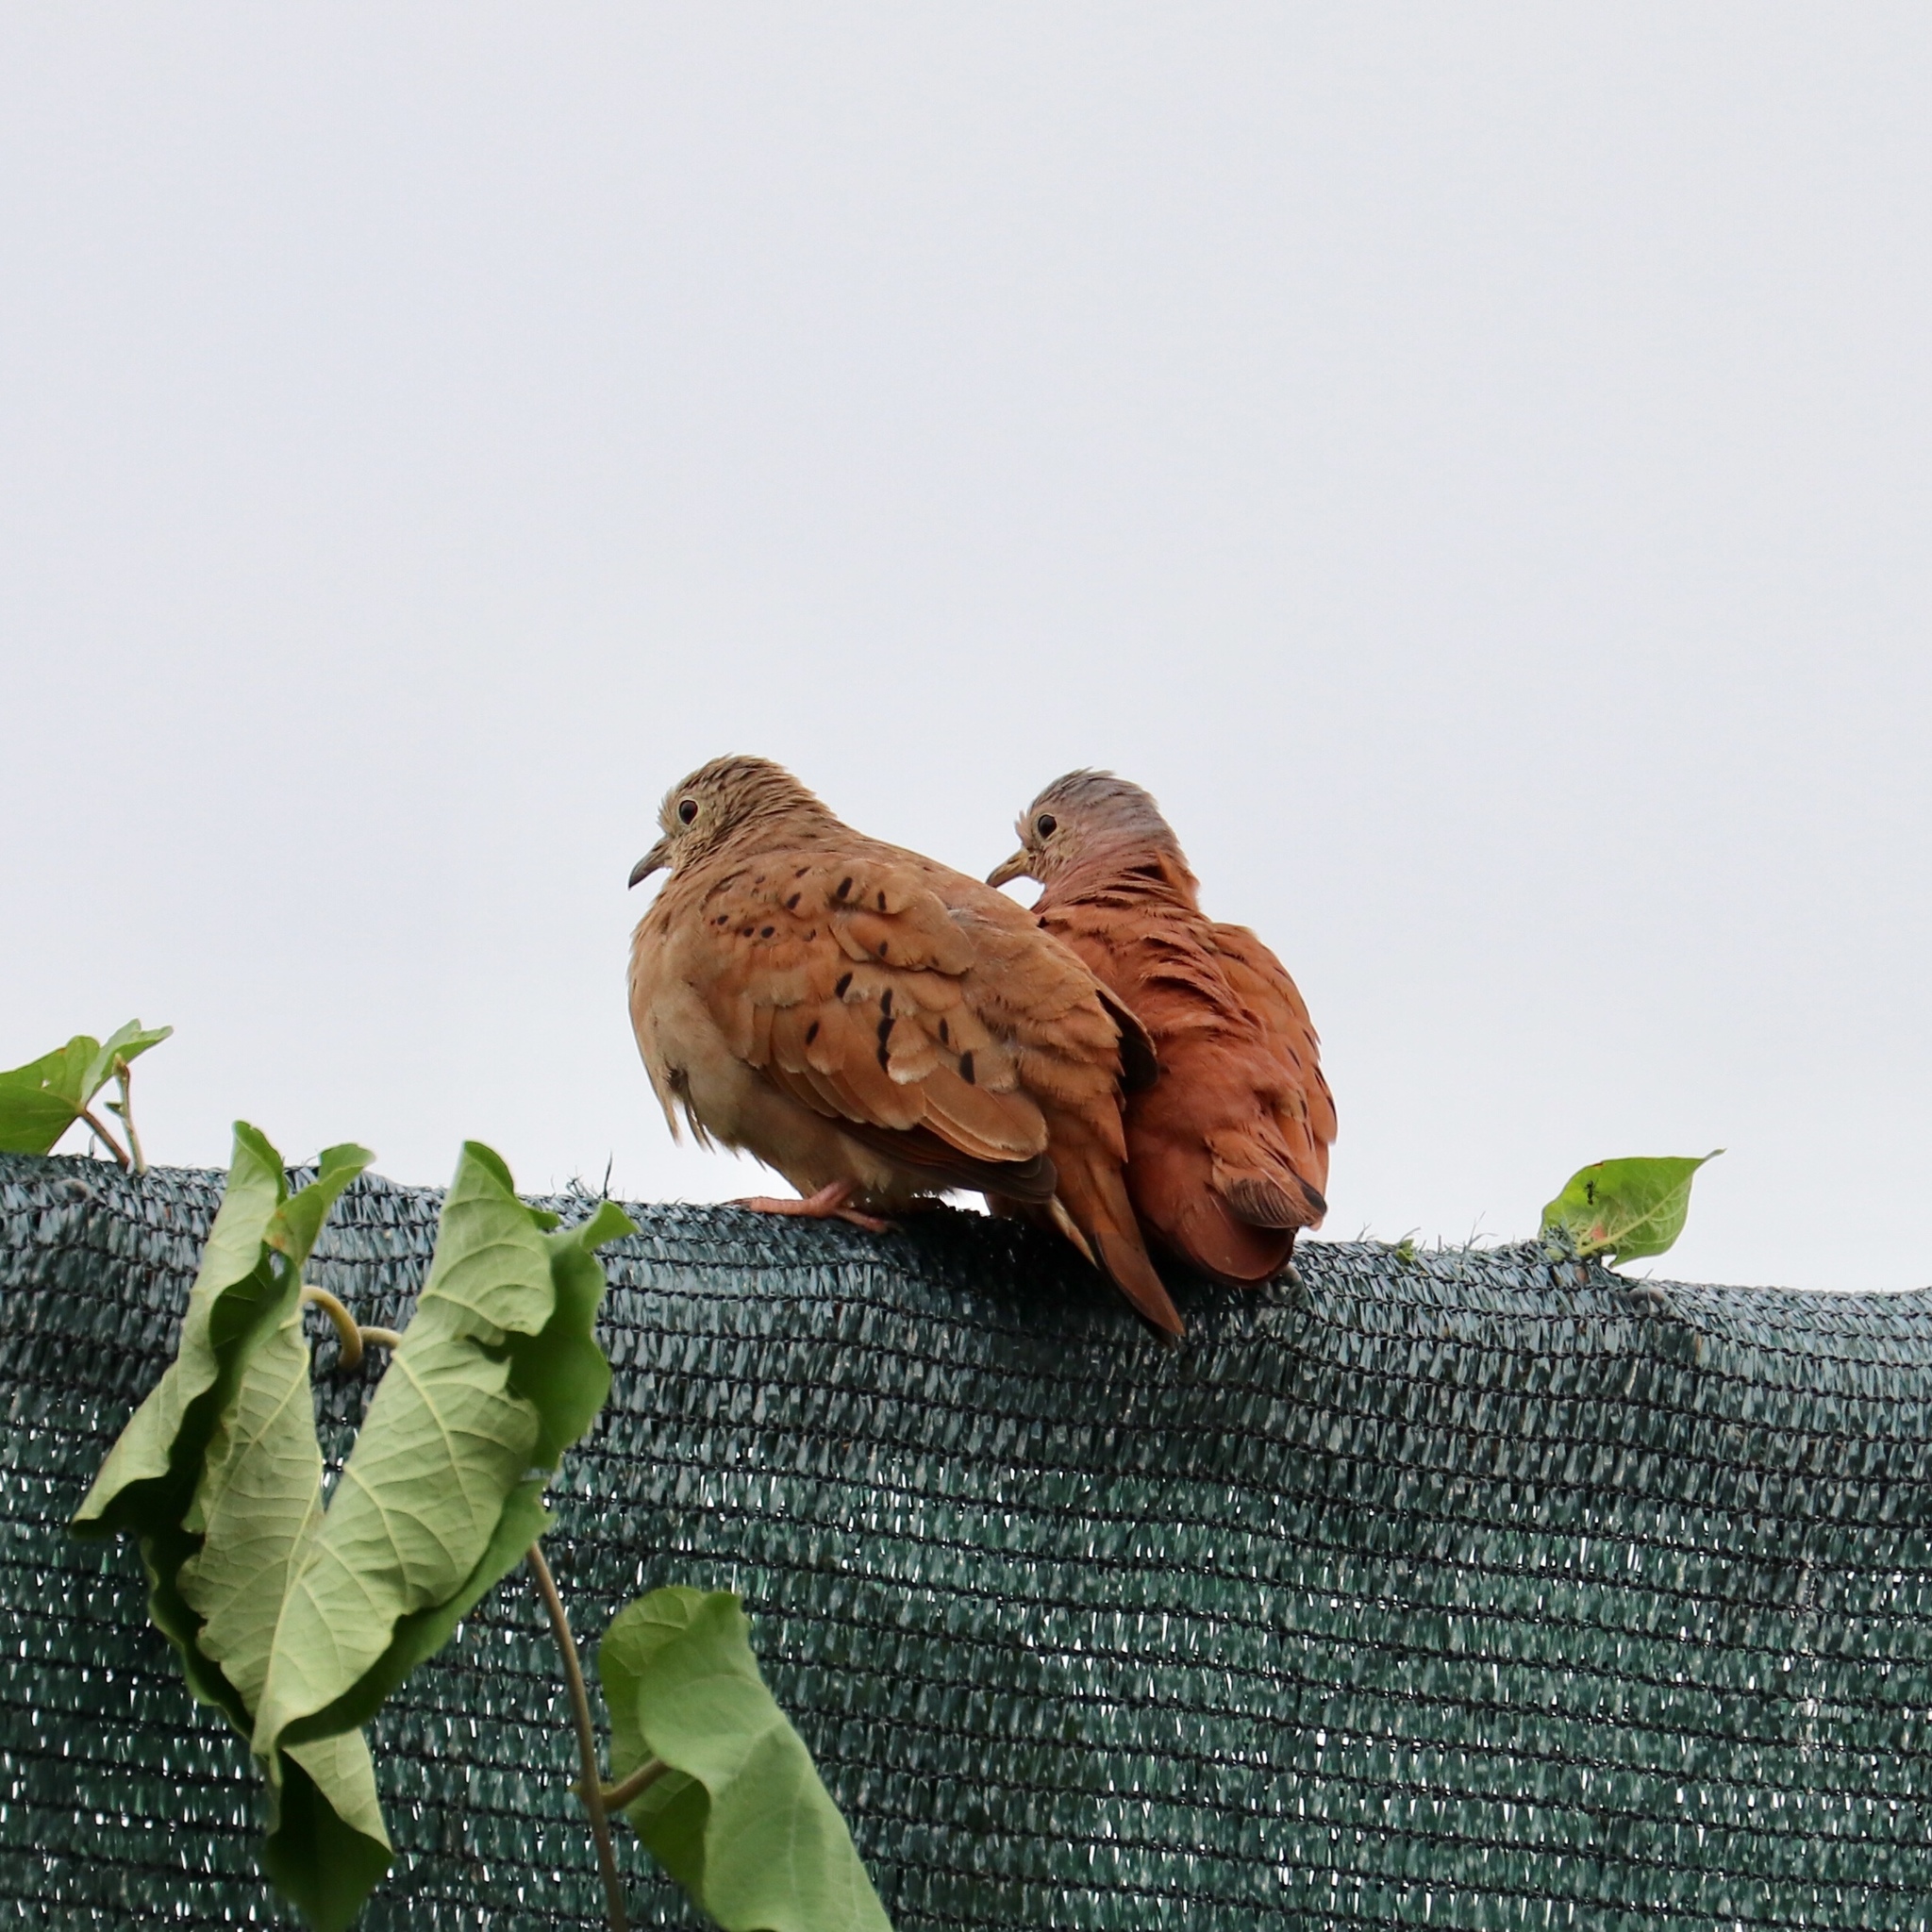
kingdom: Animalia
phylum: Chordata
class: Aves
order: Columbiformes
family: Columbidae
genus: Columbina
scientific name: Columbina talpacoti
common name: Ruddy ground dove
